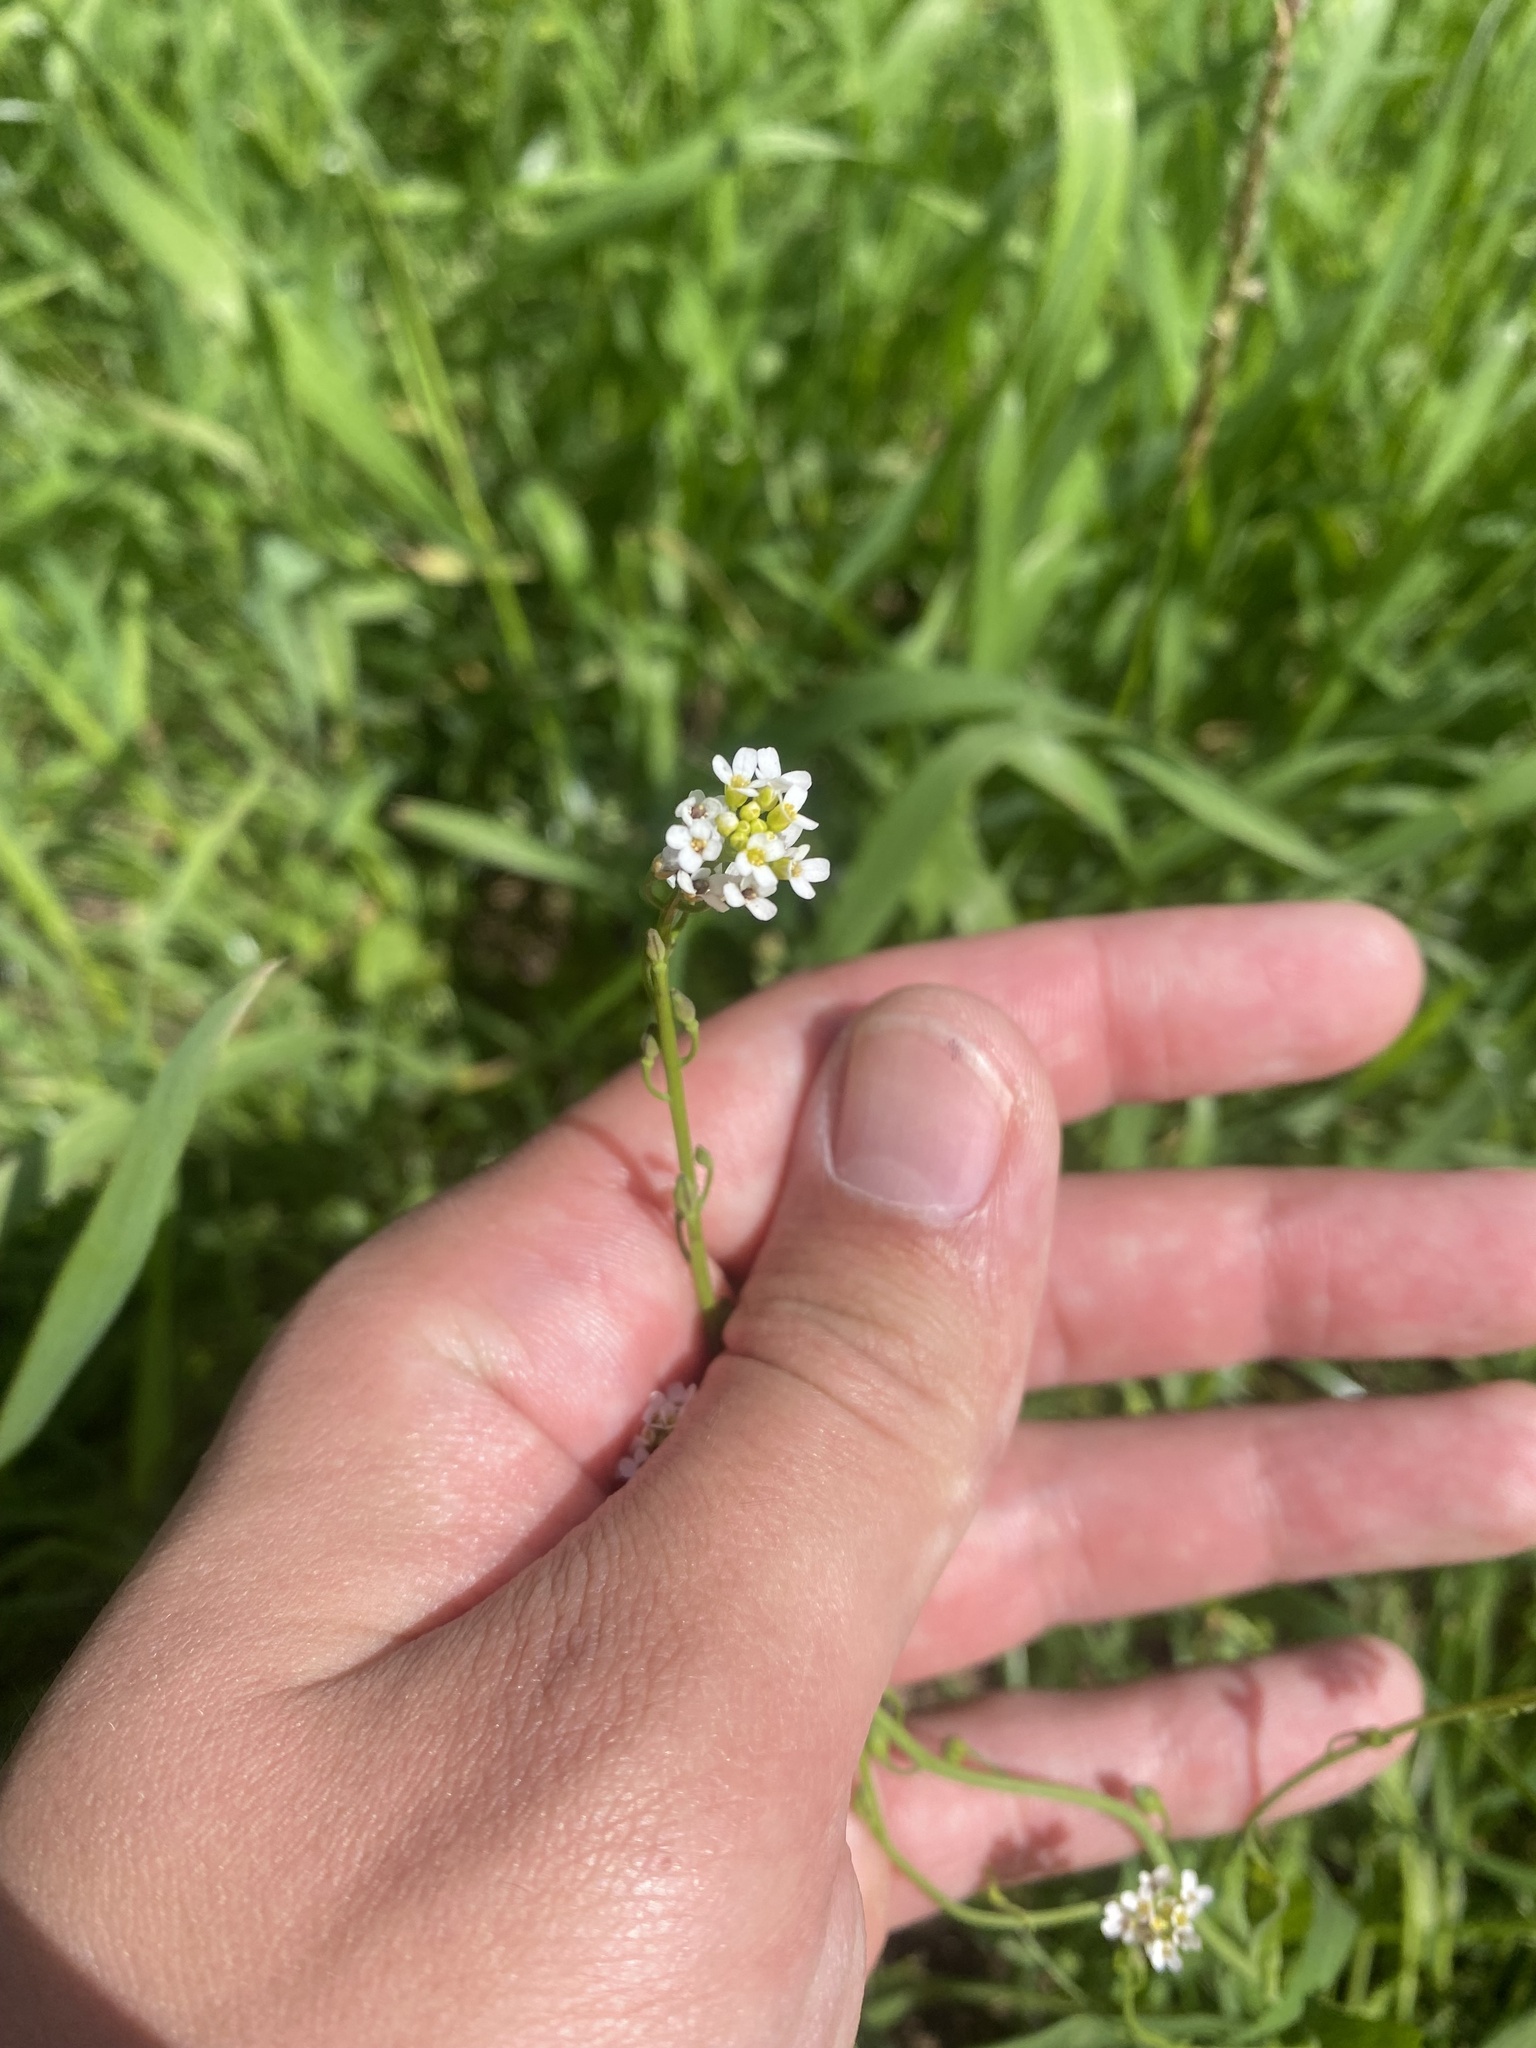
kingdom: Plantae
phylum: Tracheophyta
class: Magnoliopsida
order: Brassicales
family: Brassicaceae
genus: Calepina
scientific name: Calepina irregularis
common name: White ballmustard
